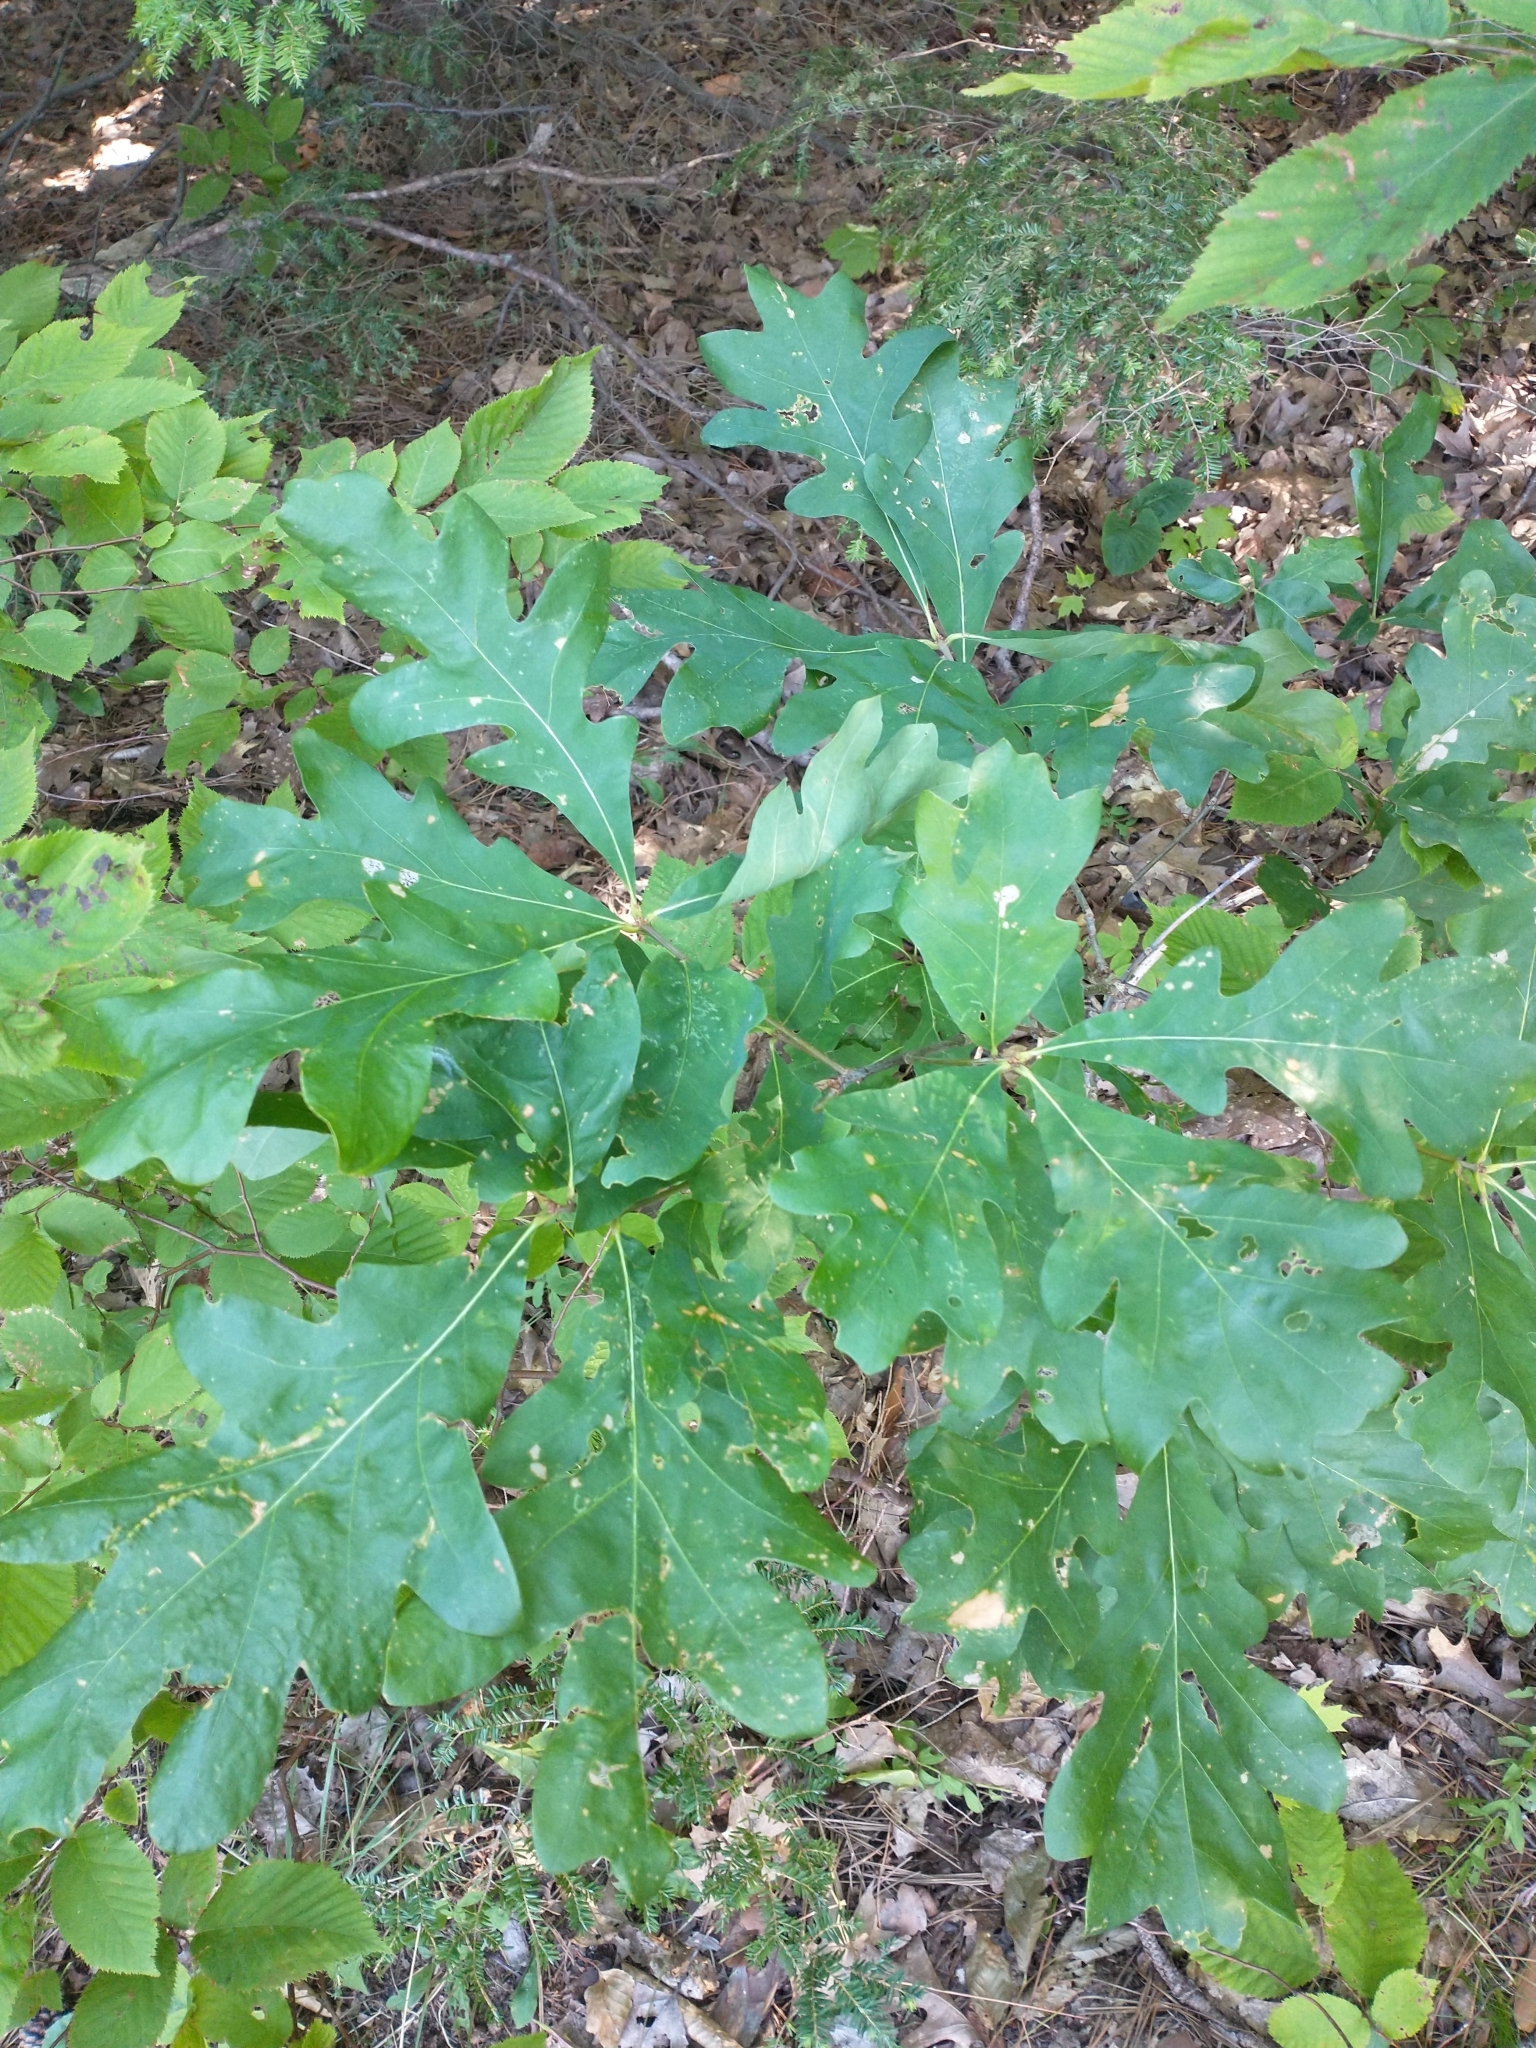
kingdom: Plantae
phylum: Tracheophyta
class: Magnoliopsida
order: Fagales
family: Fagaceae
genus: Quercus
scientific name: Quercus alba
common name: White oak
